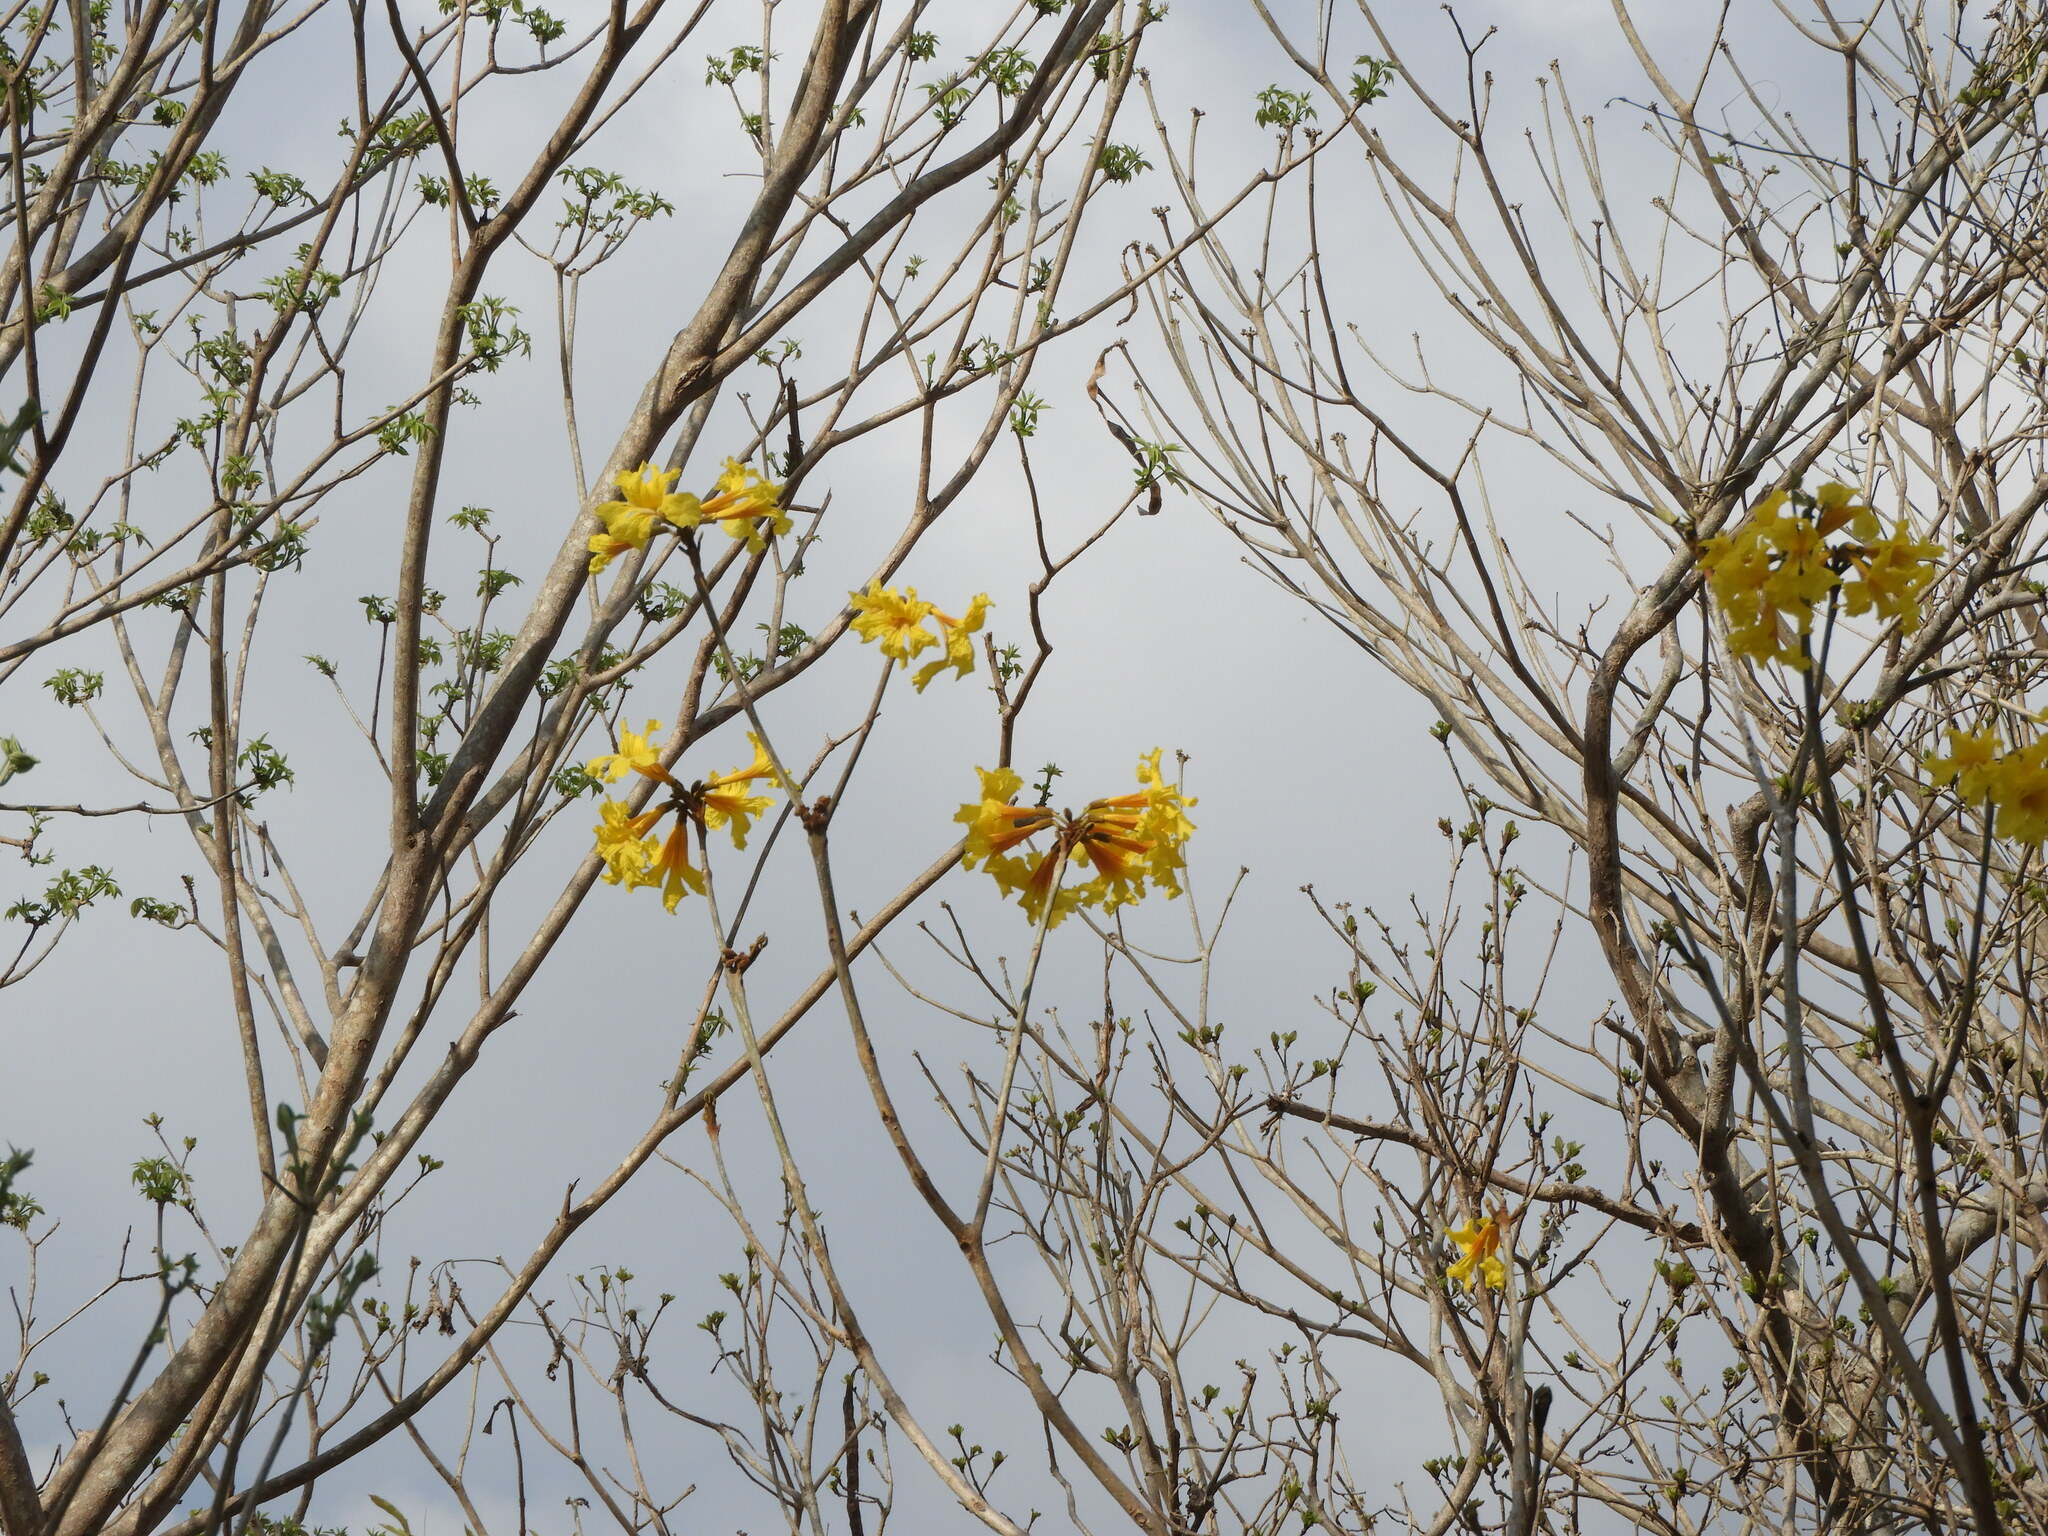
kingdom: Plantae
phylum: Tracheophyta
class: Magnoliopsida
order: Lamiales
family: Bignoniaceae
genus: Handroanthus
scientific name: Handroanthus chrysanthus
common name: Trumpet trees
